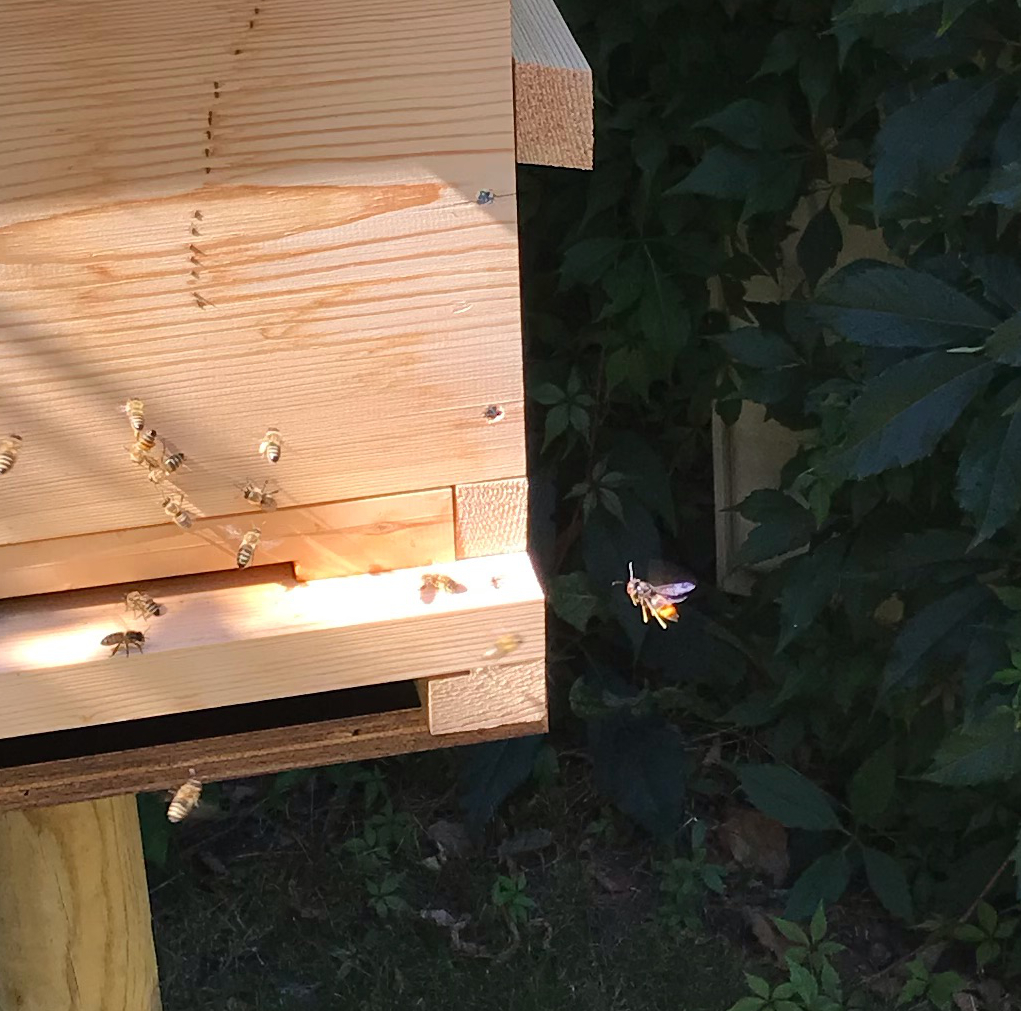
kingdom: Animalia
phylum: Arthropoda
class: Insecta
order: Hymenoptera
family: Vespidae
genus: Vespa
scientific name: Vespa velutina
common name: Asian hornet
